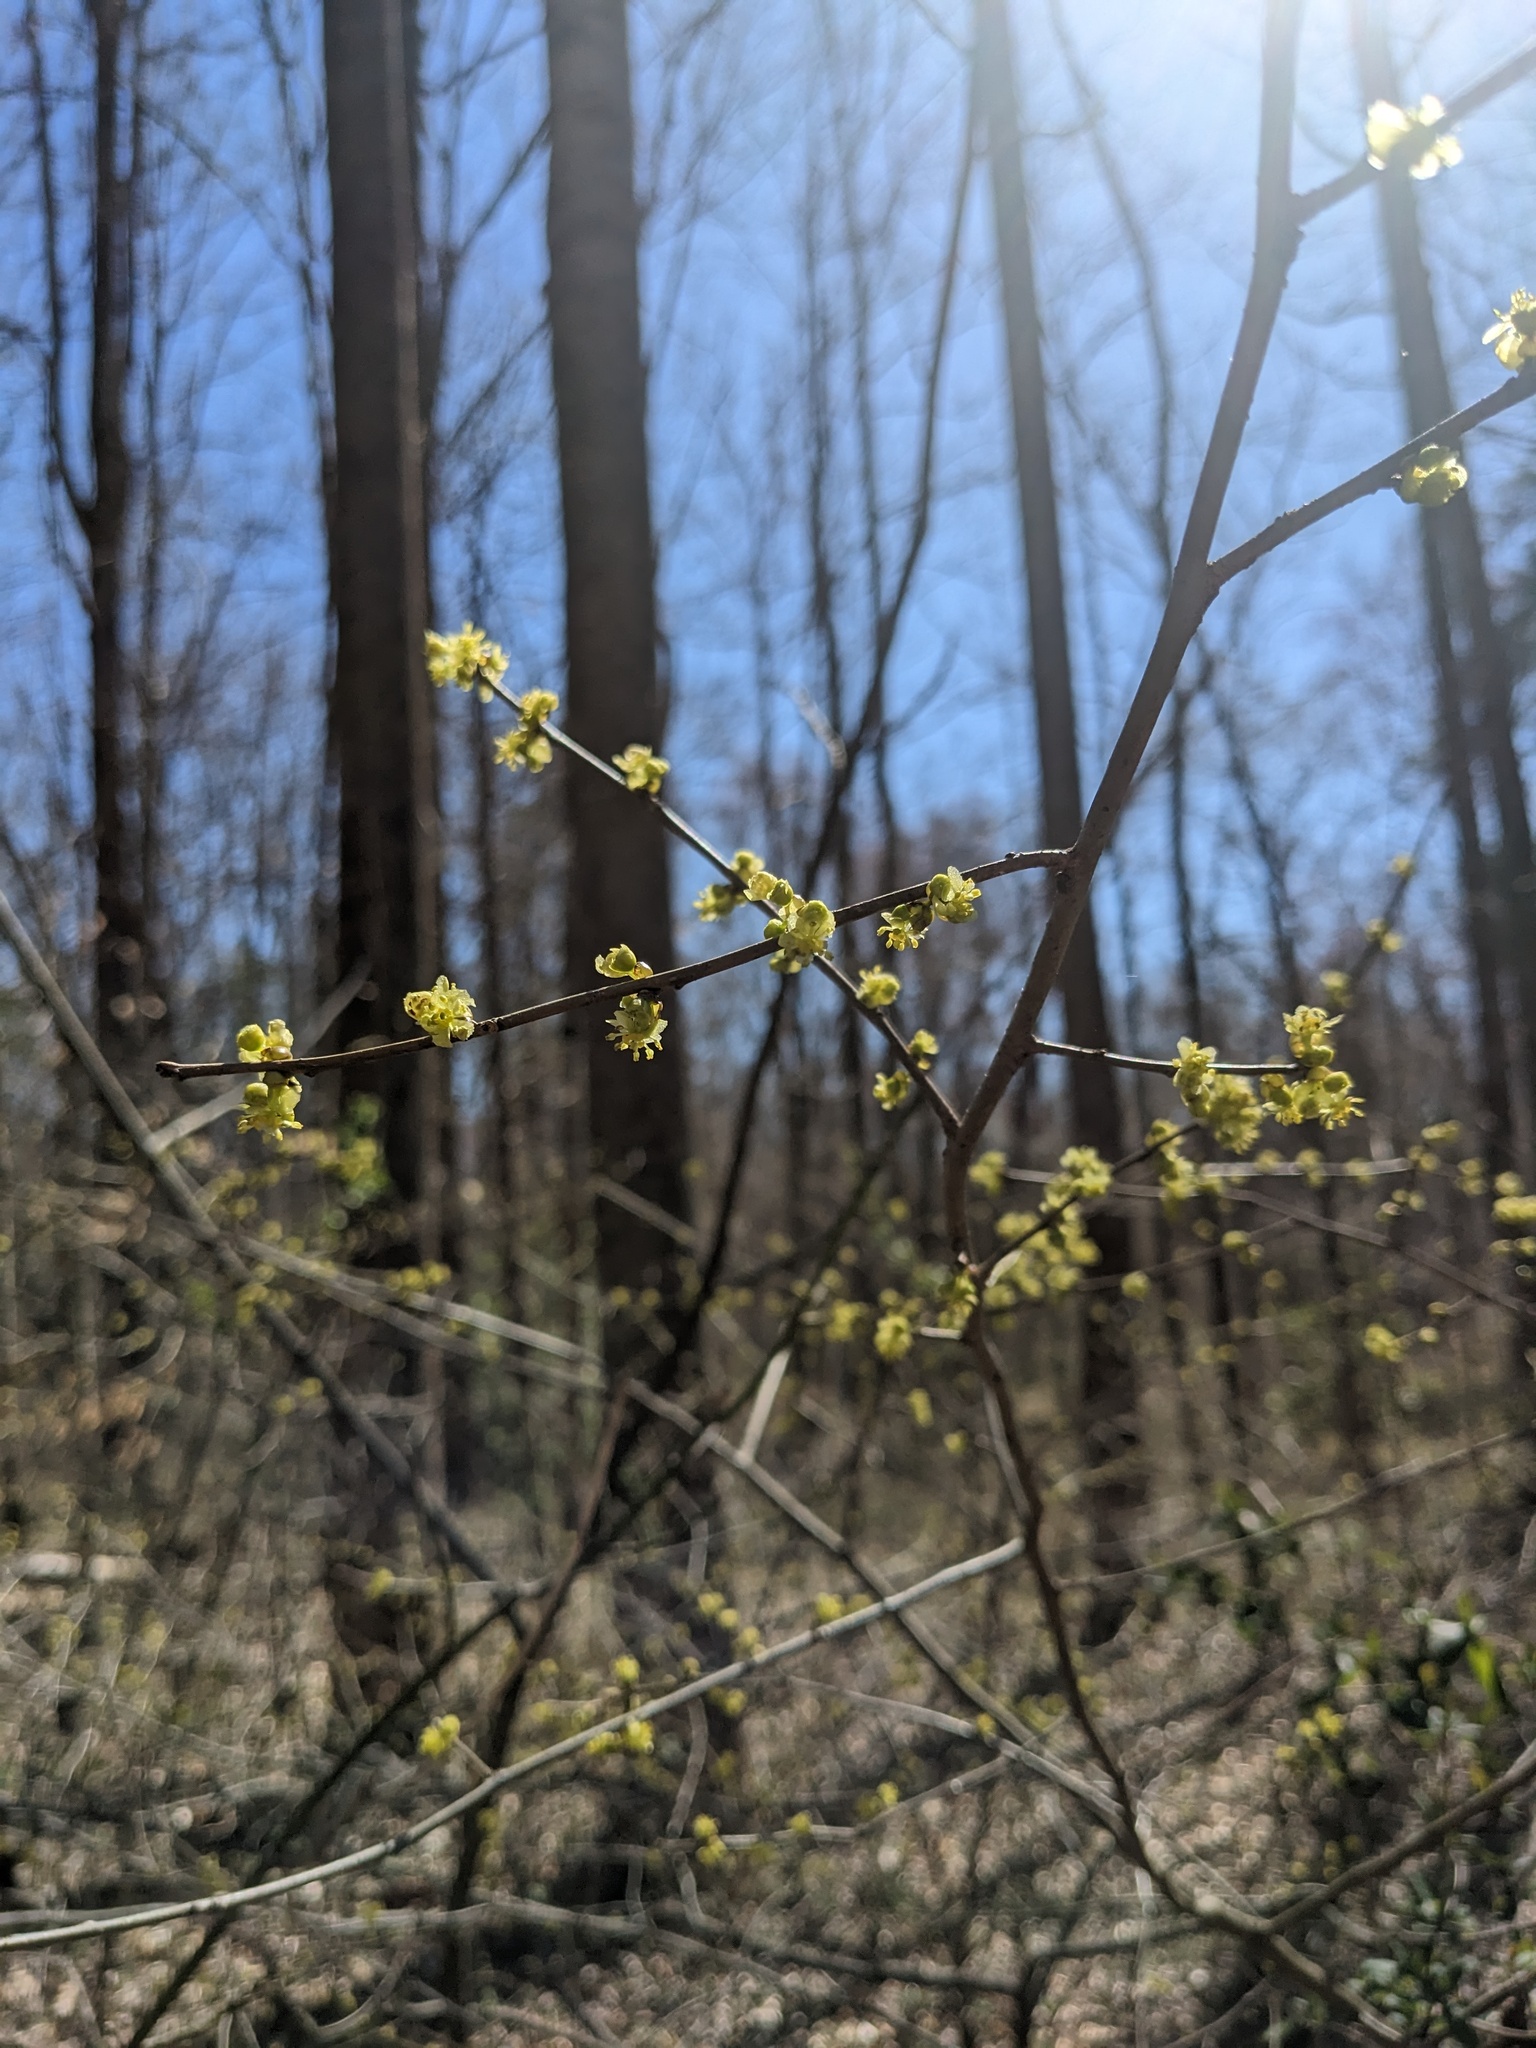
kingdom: Plantae
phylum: Tracheophyta
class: Magnoliopsida
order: Laurales
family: Lauraceae
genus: Lindera
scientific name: Lindera benzoin
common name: Spicebush
